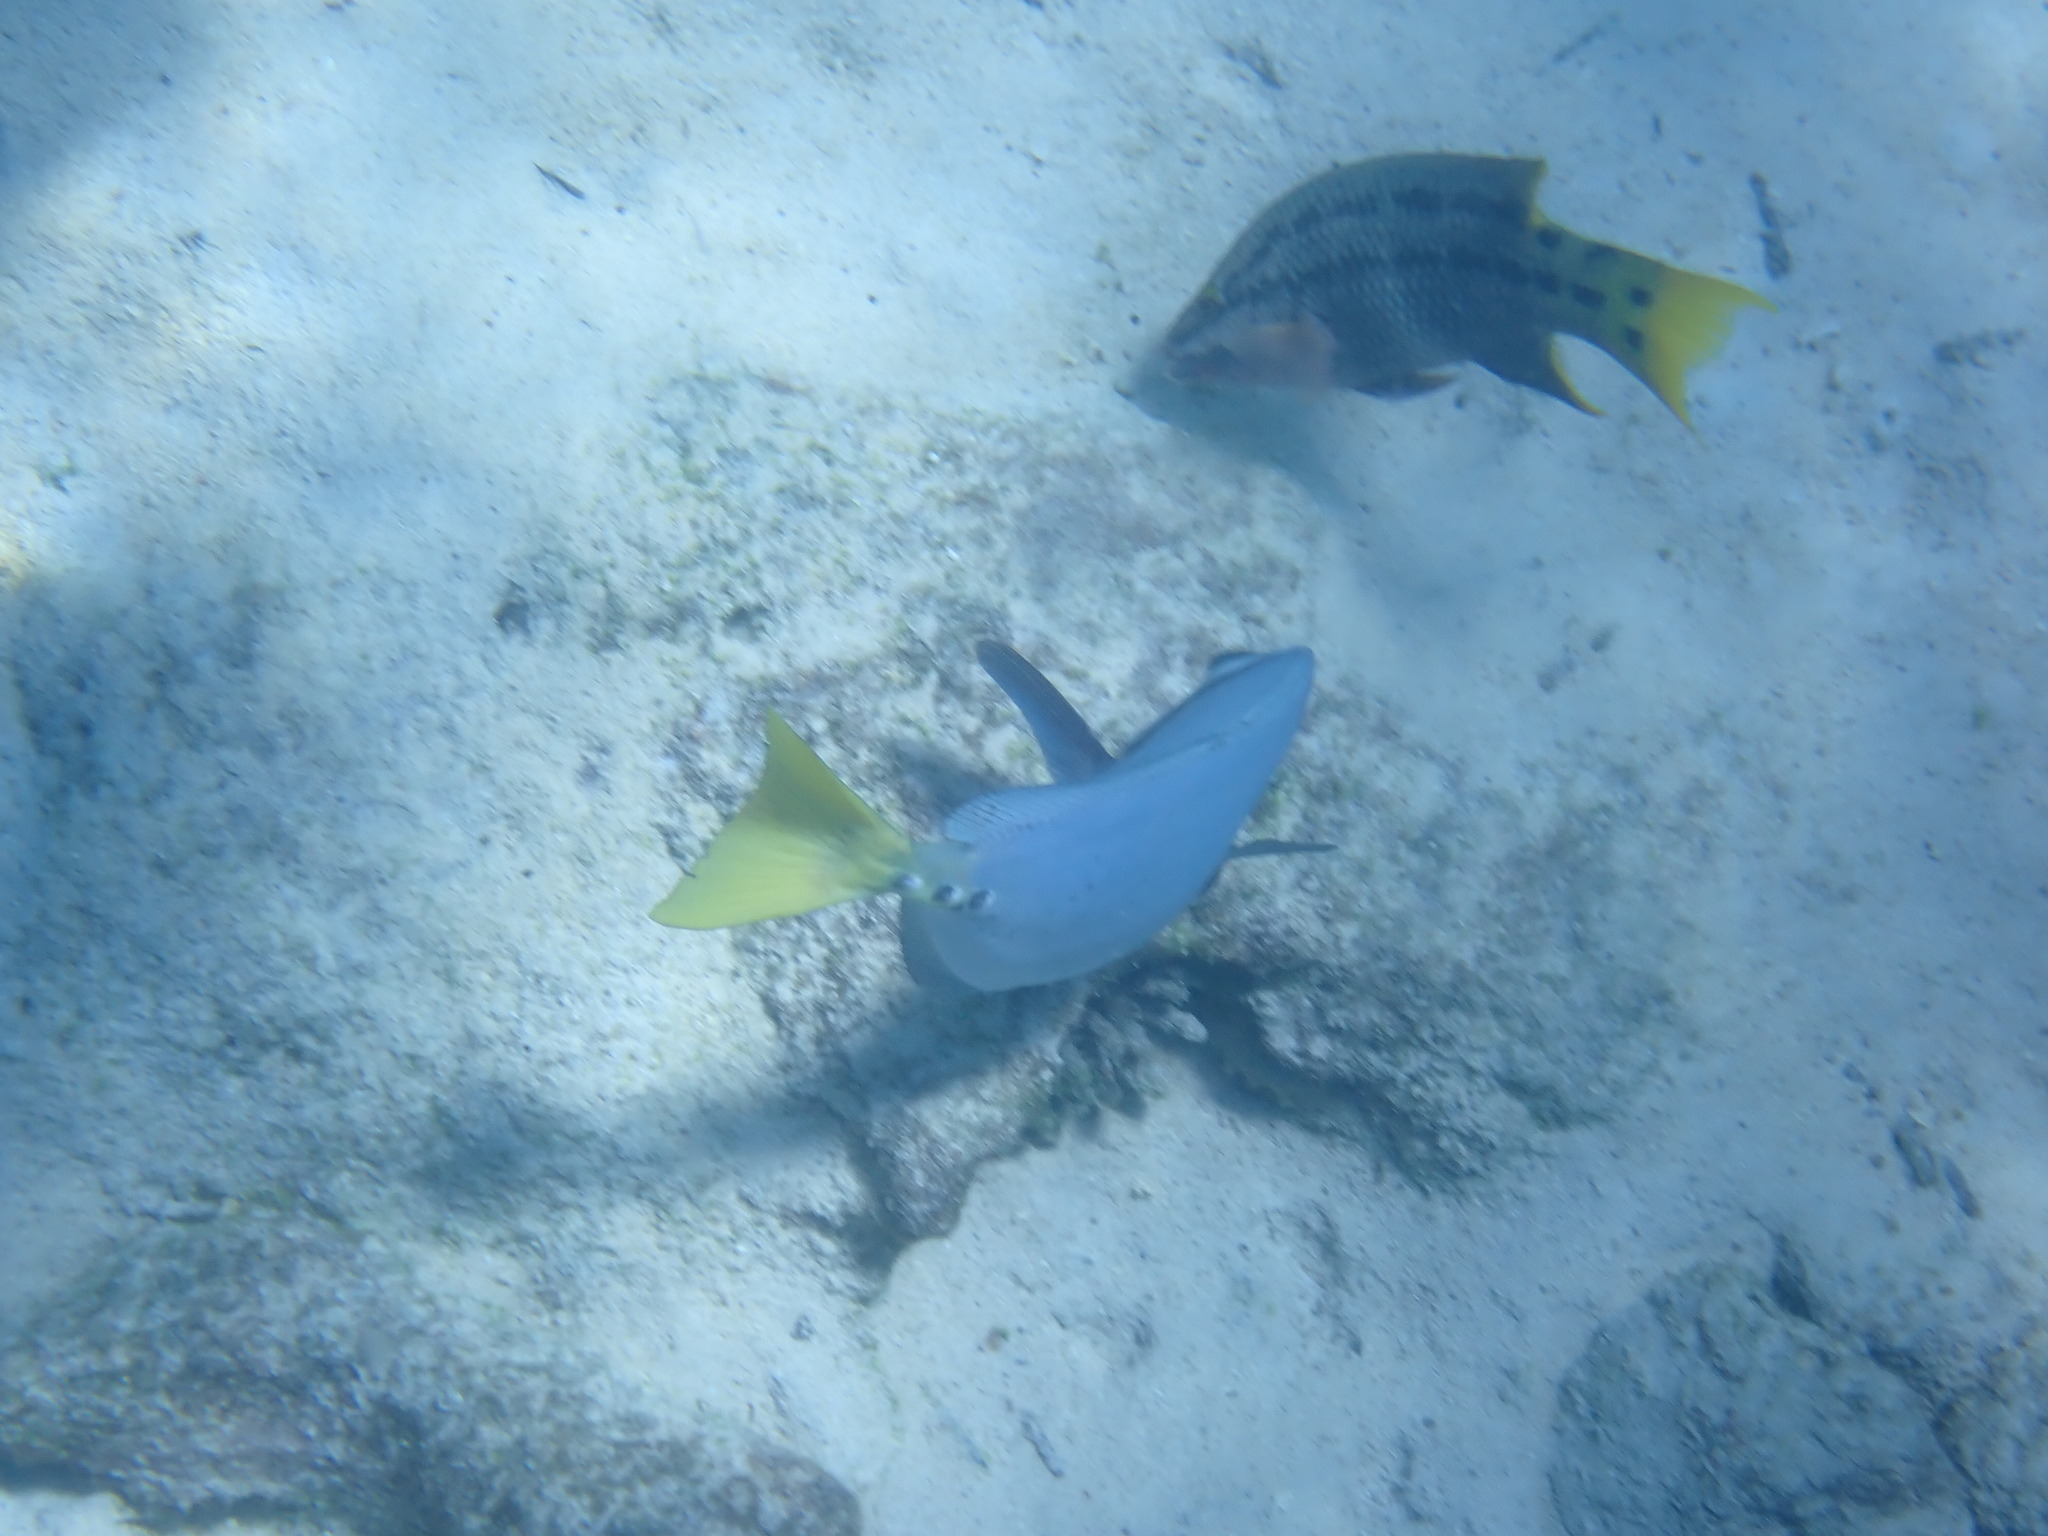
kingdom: Animalia
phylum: Chordata
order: Perciformes
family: Labridae
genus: Bodianus
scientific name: Bodianus diplotaenia
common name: Mexican hogfish
